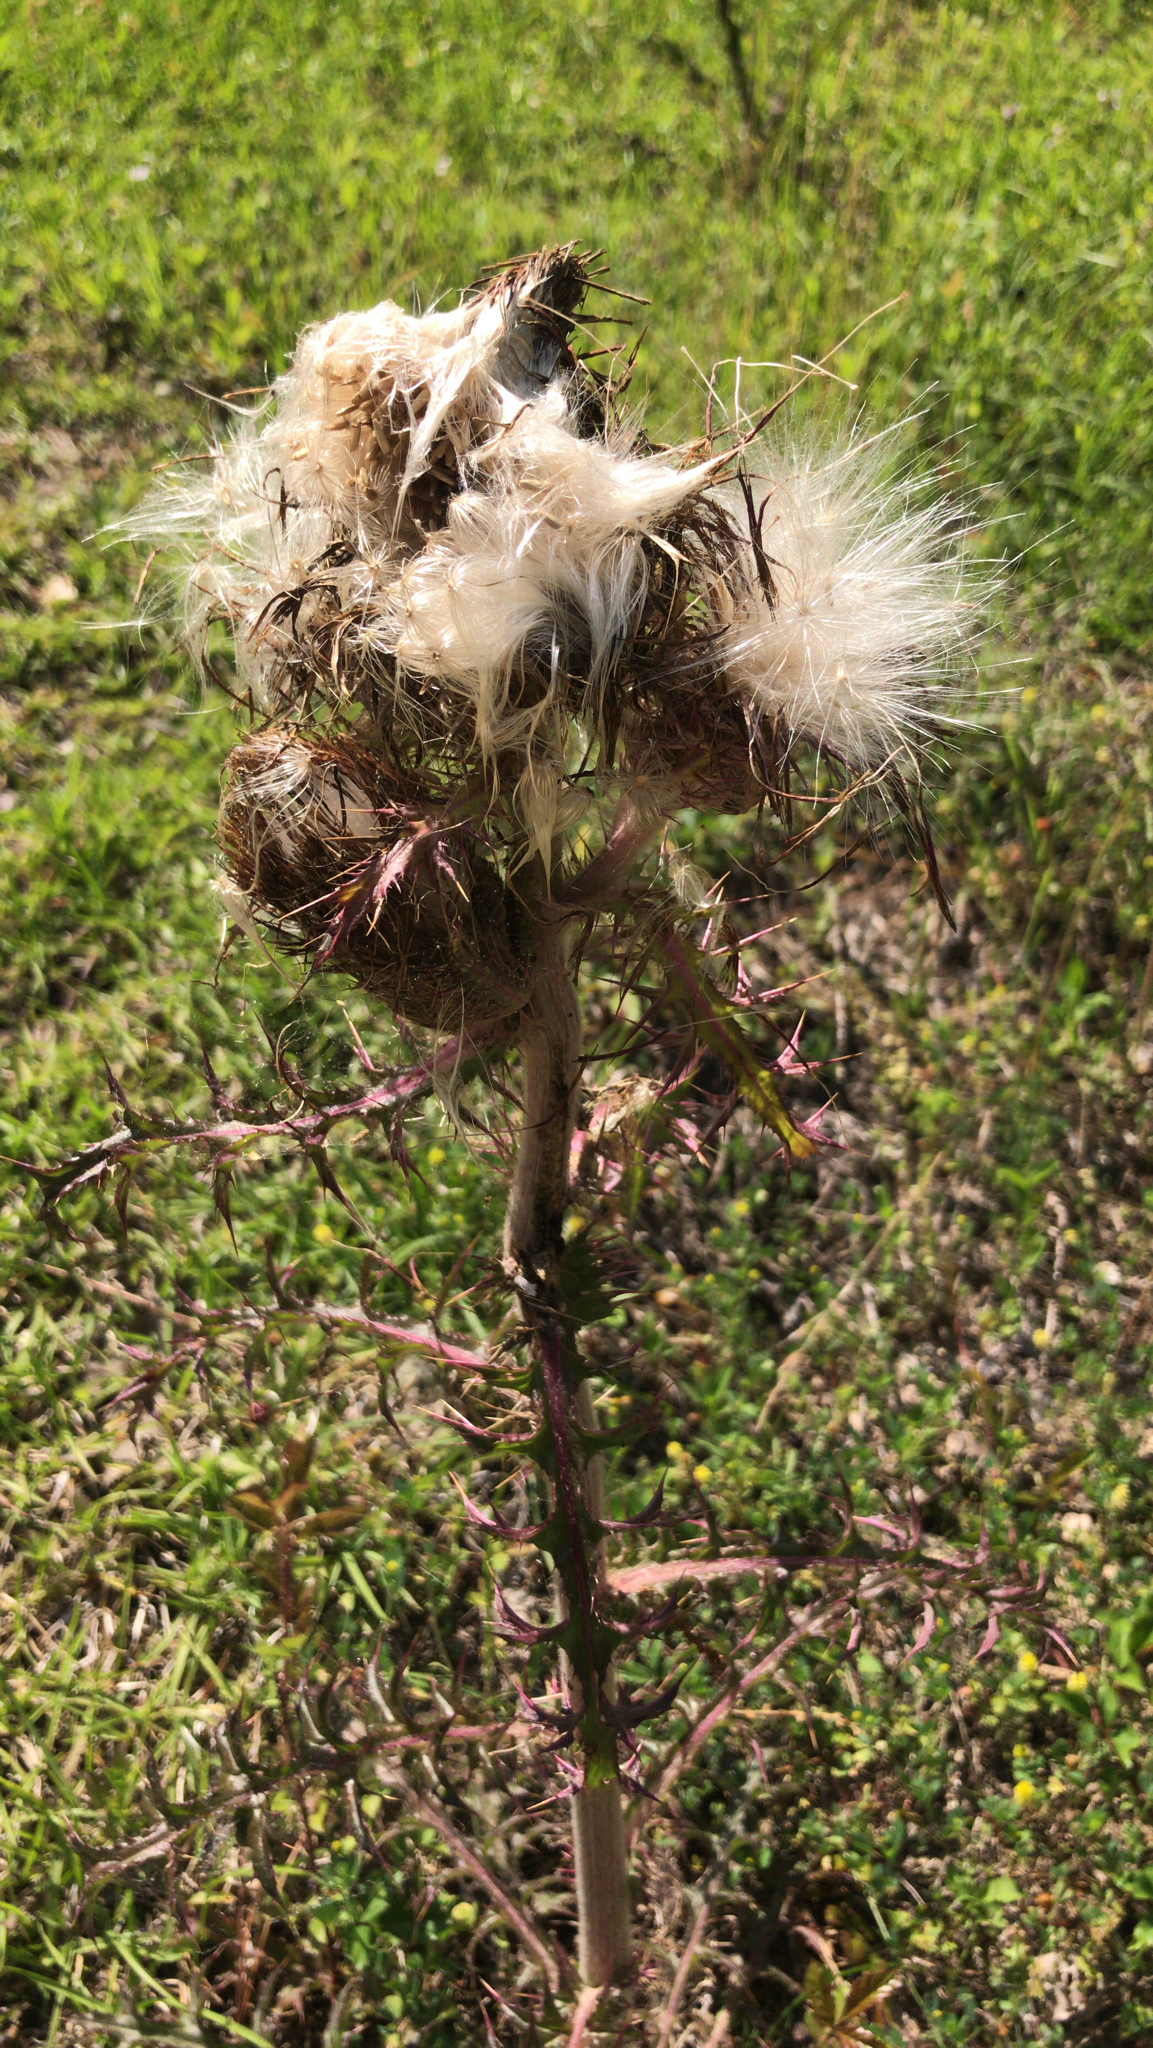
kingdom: Plantae
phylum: Tracheophyta
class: Magnoliopsida
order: Asterales
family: Asteraceae
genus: Cirsium
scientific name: Cirsium horridulum
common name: Bristly thistle
